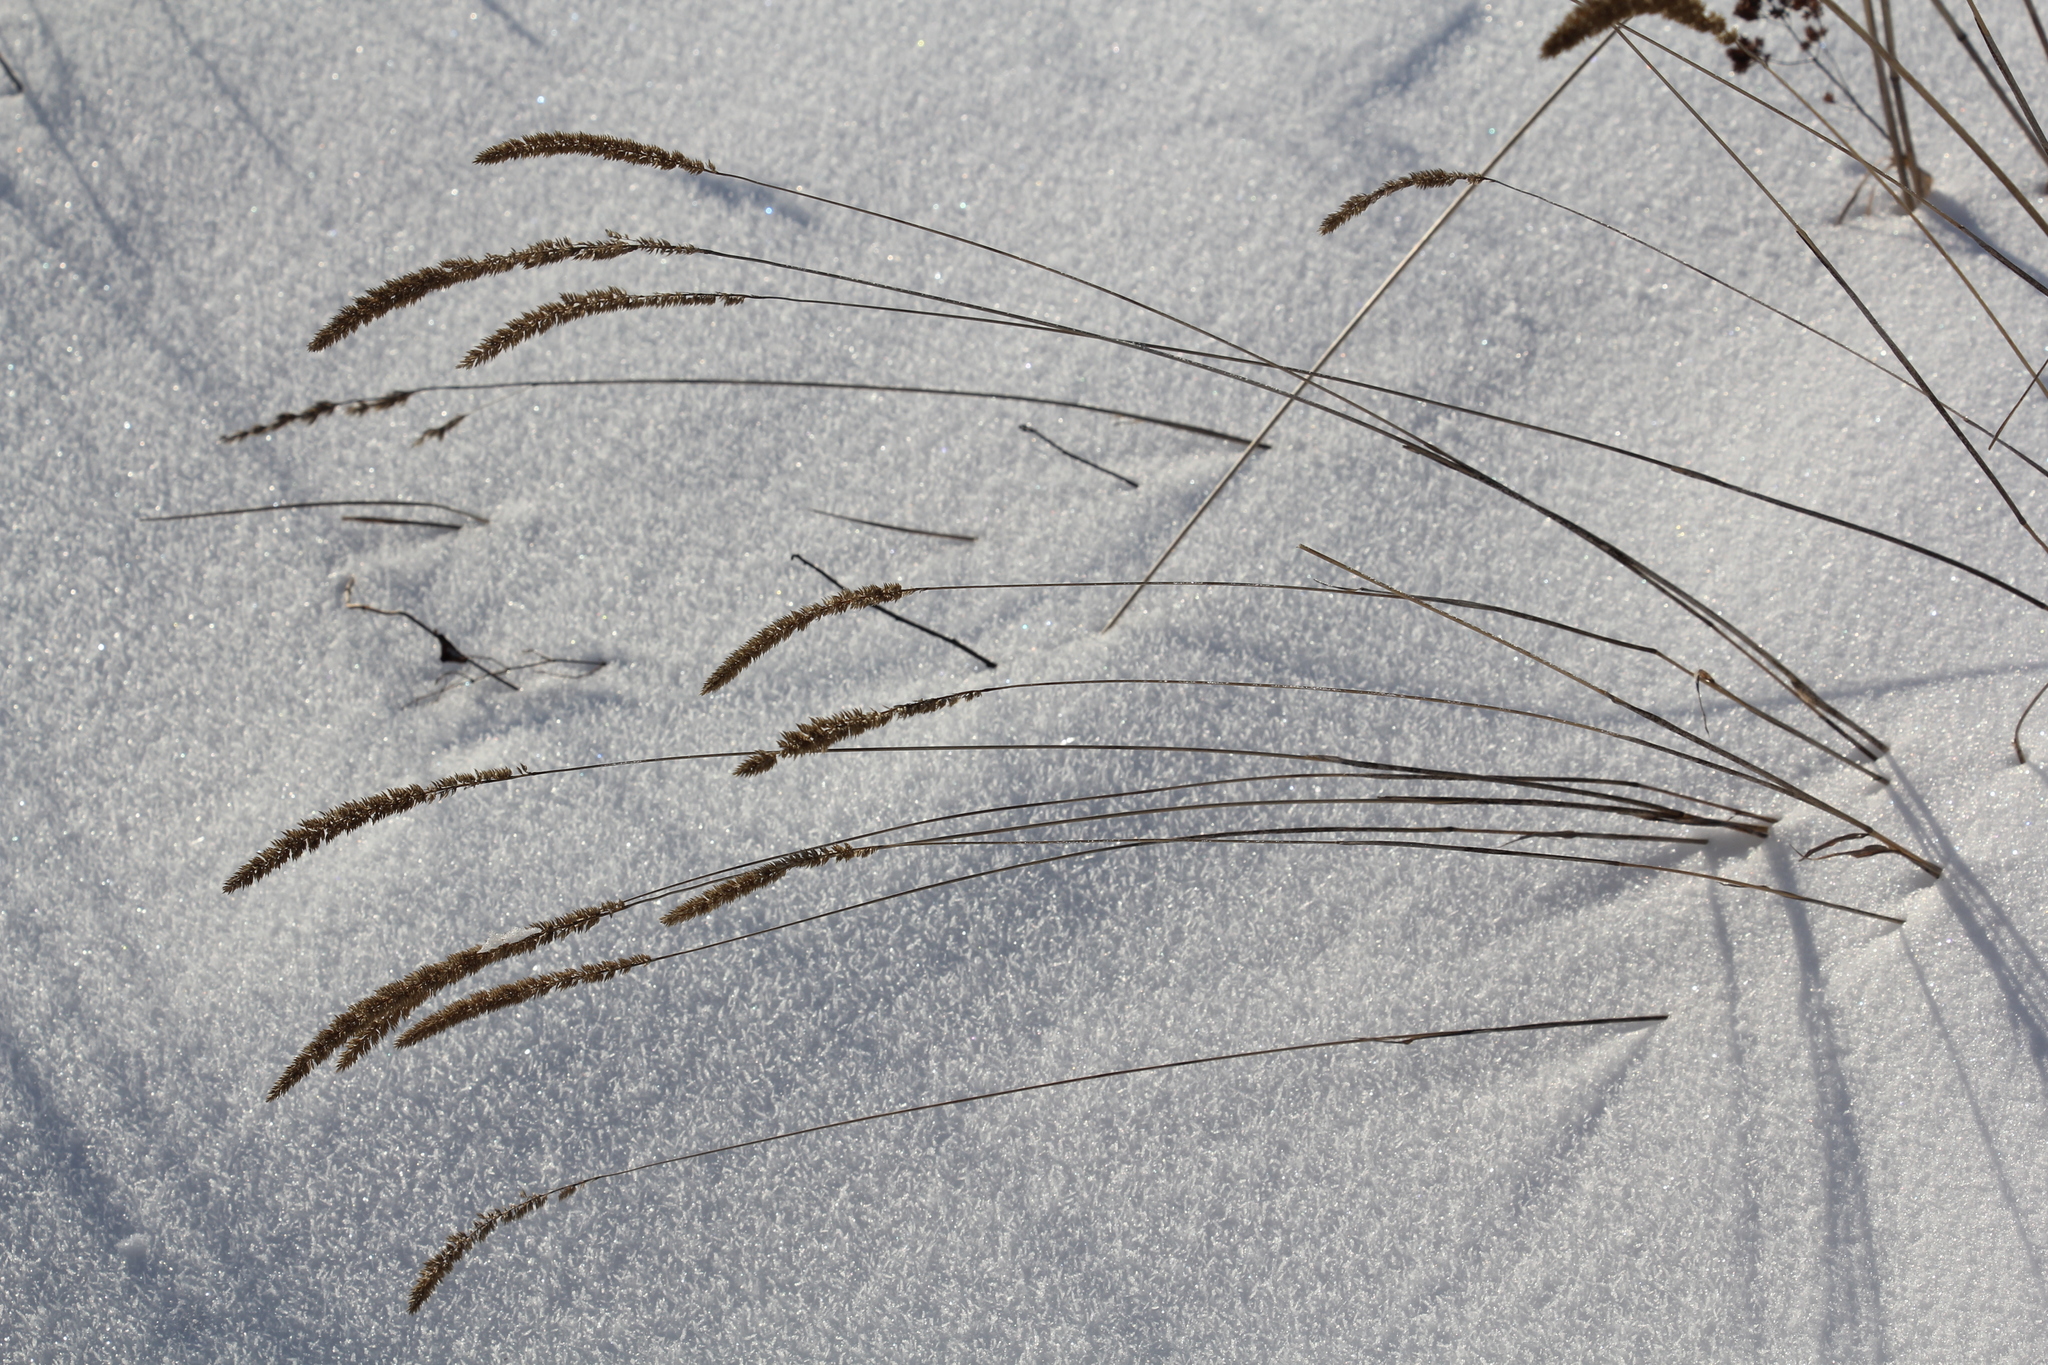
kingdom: Plantae
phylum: Tracheophyta
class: Liliopsida
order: Poales
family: Poaceae
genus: Phleum
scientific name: Phleum phleoides
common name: Purple-stem cat's-tail
